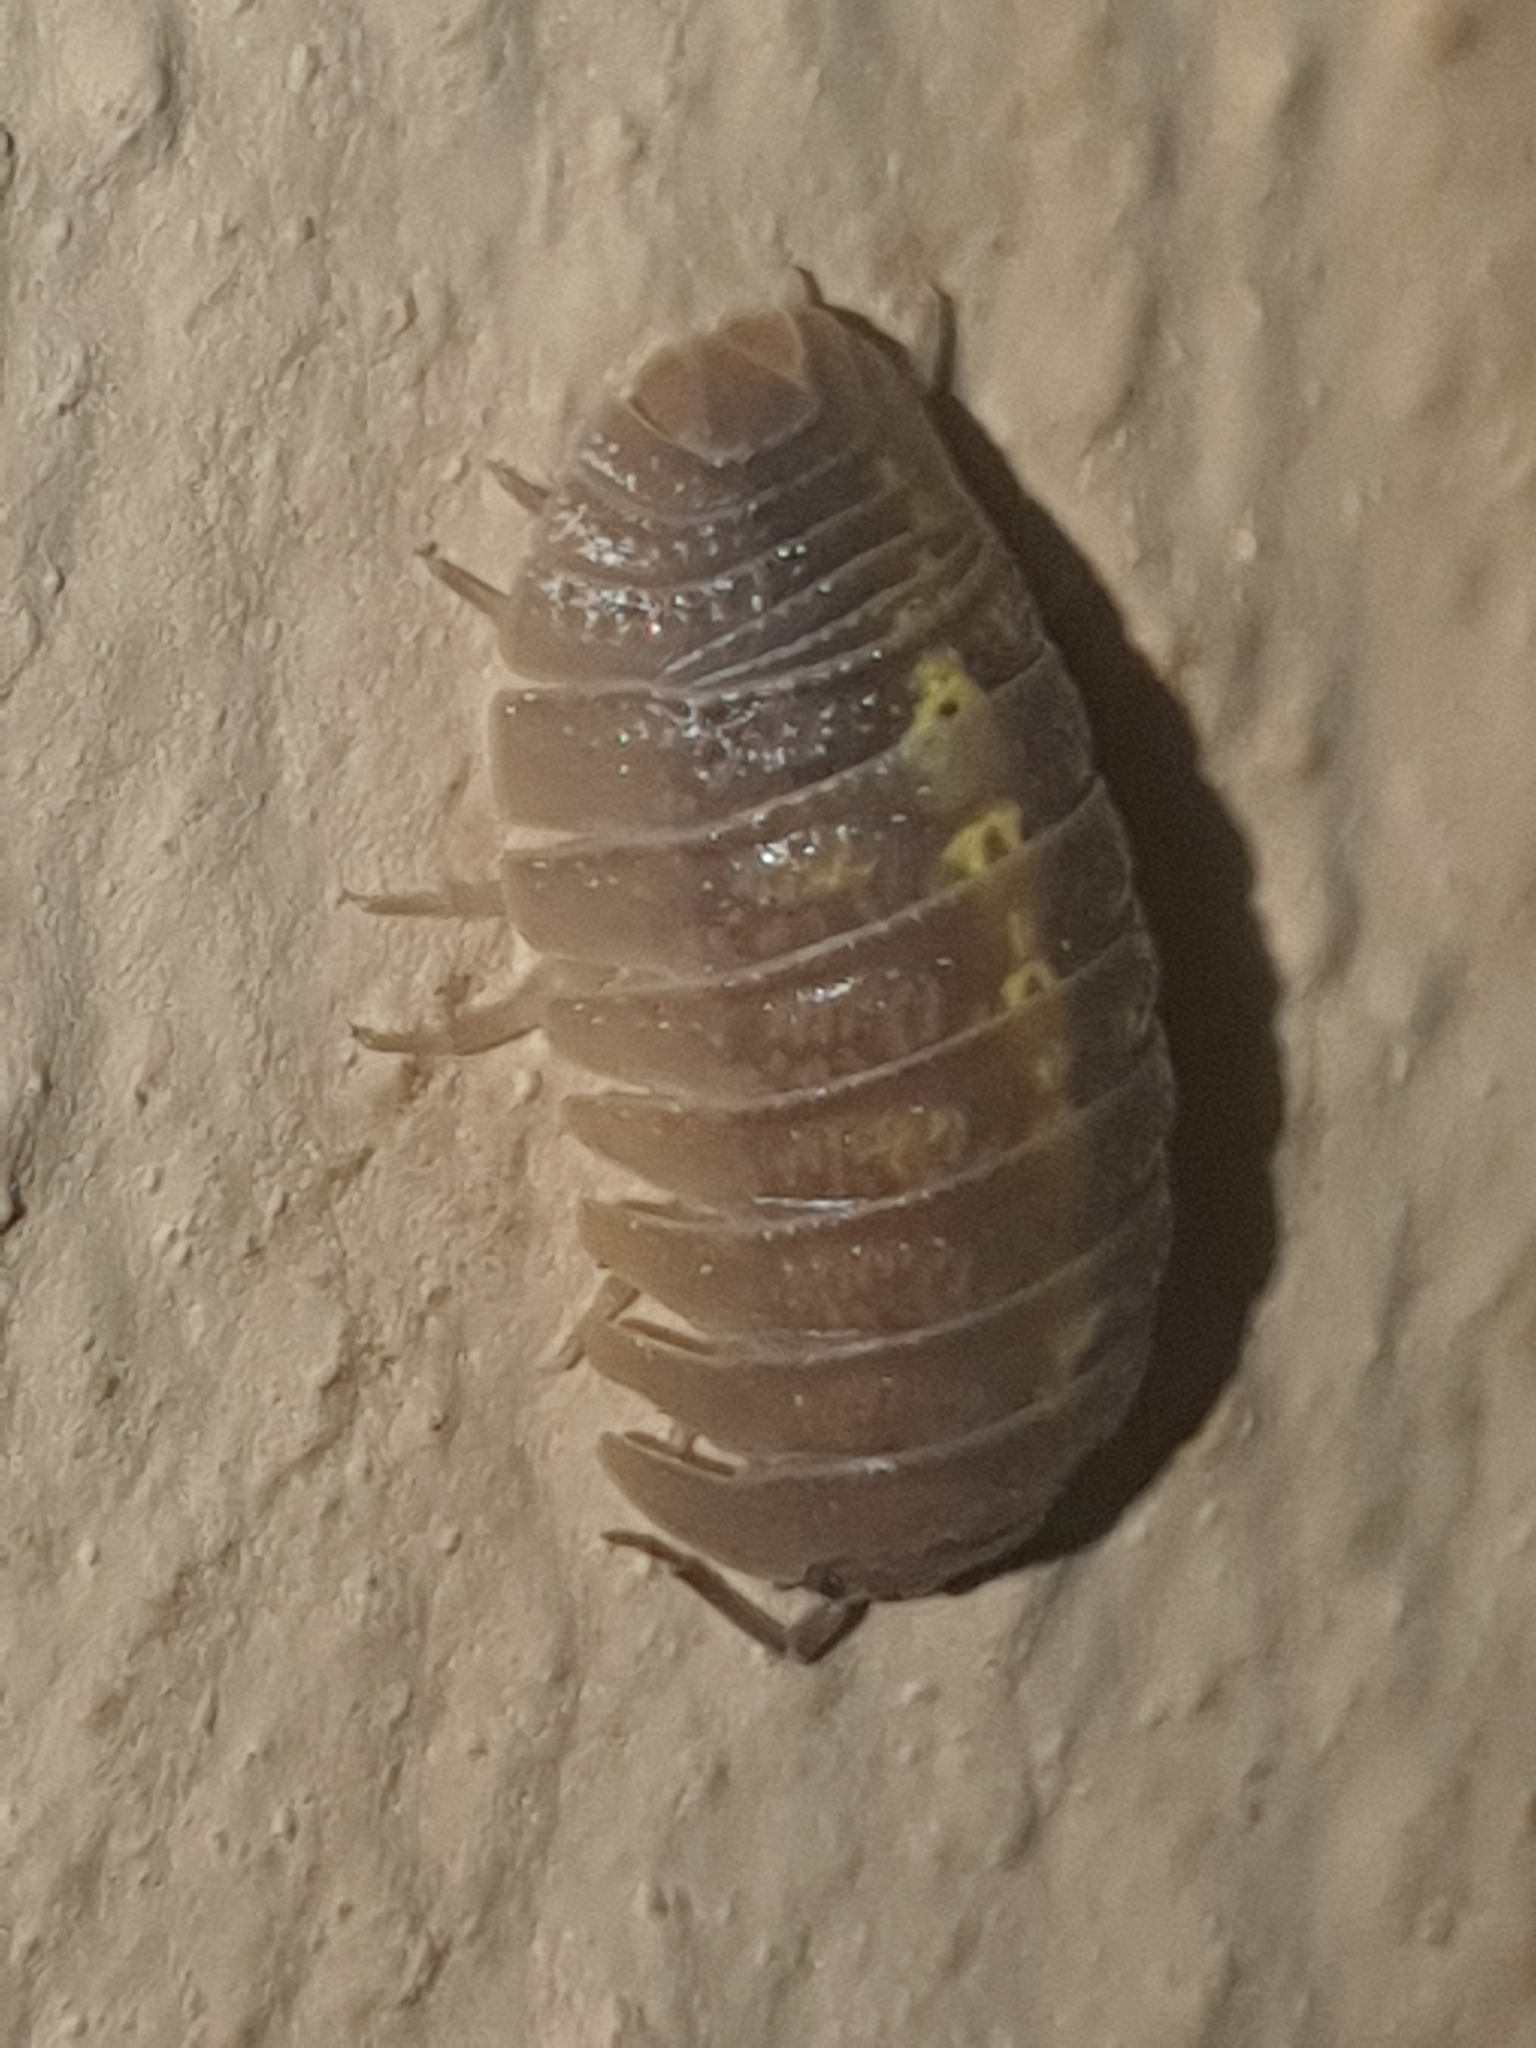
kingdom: Animalia
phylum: Arthropoda
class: Malacostraca
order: Isopoda
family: Armadillidiidae
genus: Armadillidium
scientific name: Armadillidium granulatum
